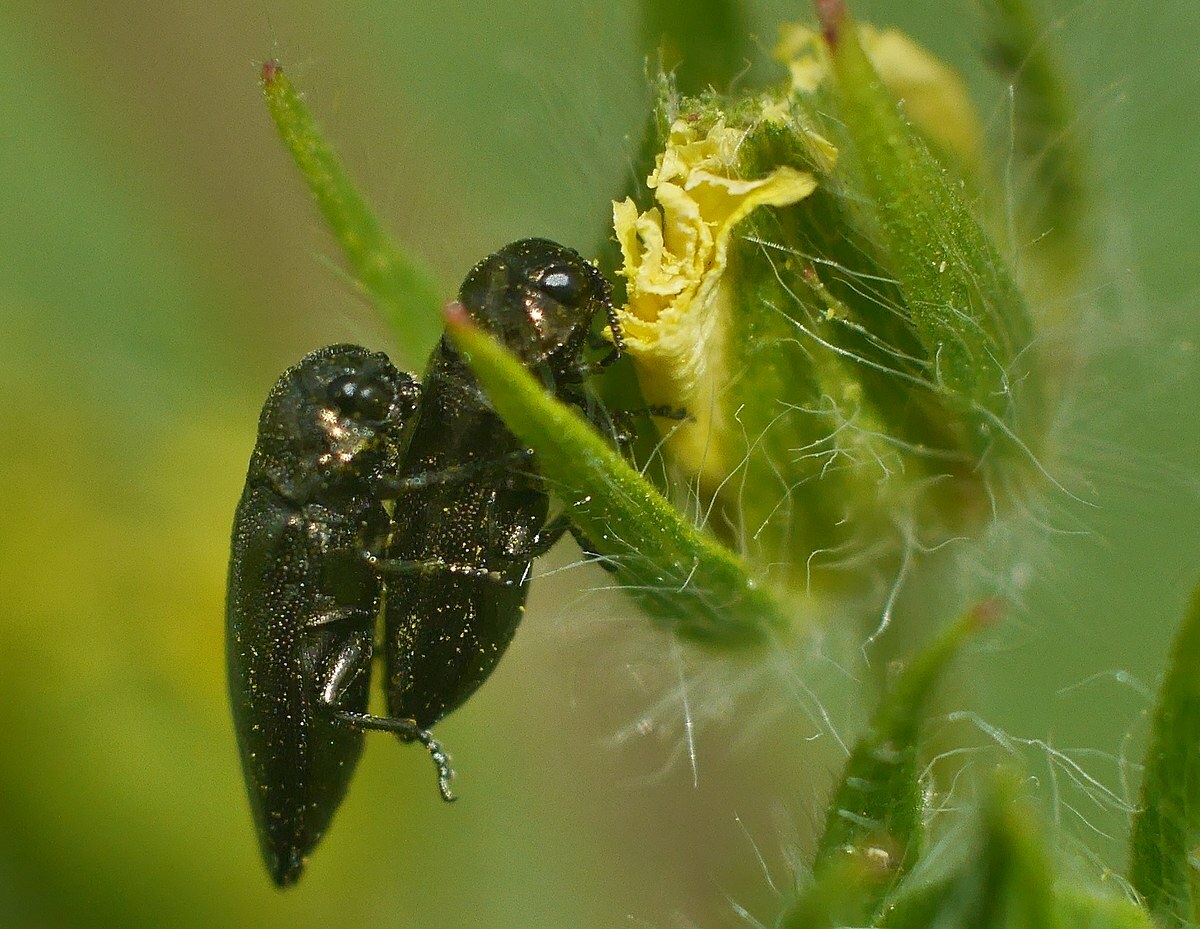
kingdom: Animalia
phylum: Arthropoda
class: Insecta
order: Coleoptera
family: Buprestidae
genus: Coraebus
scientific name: Coraebus elatus
